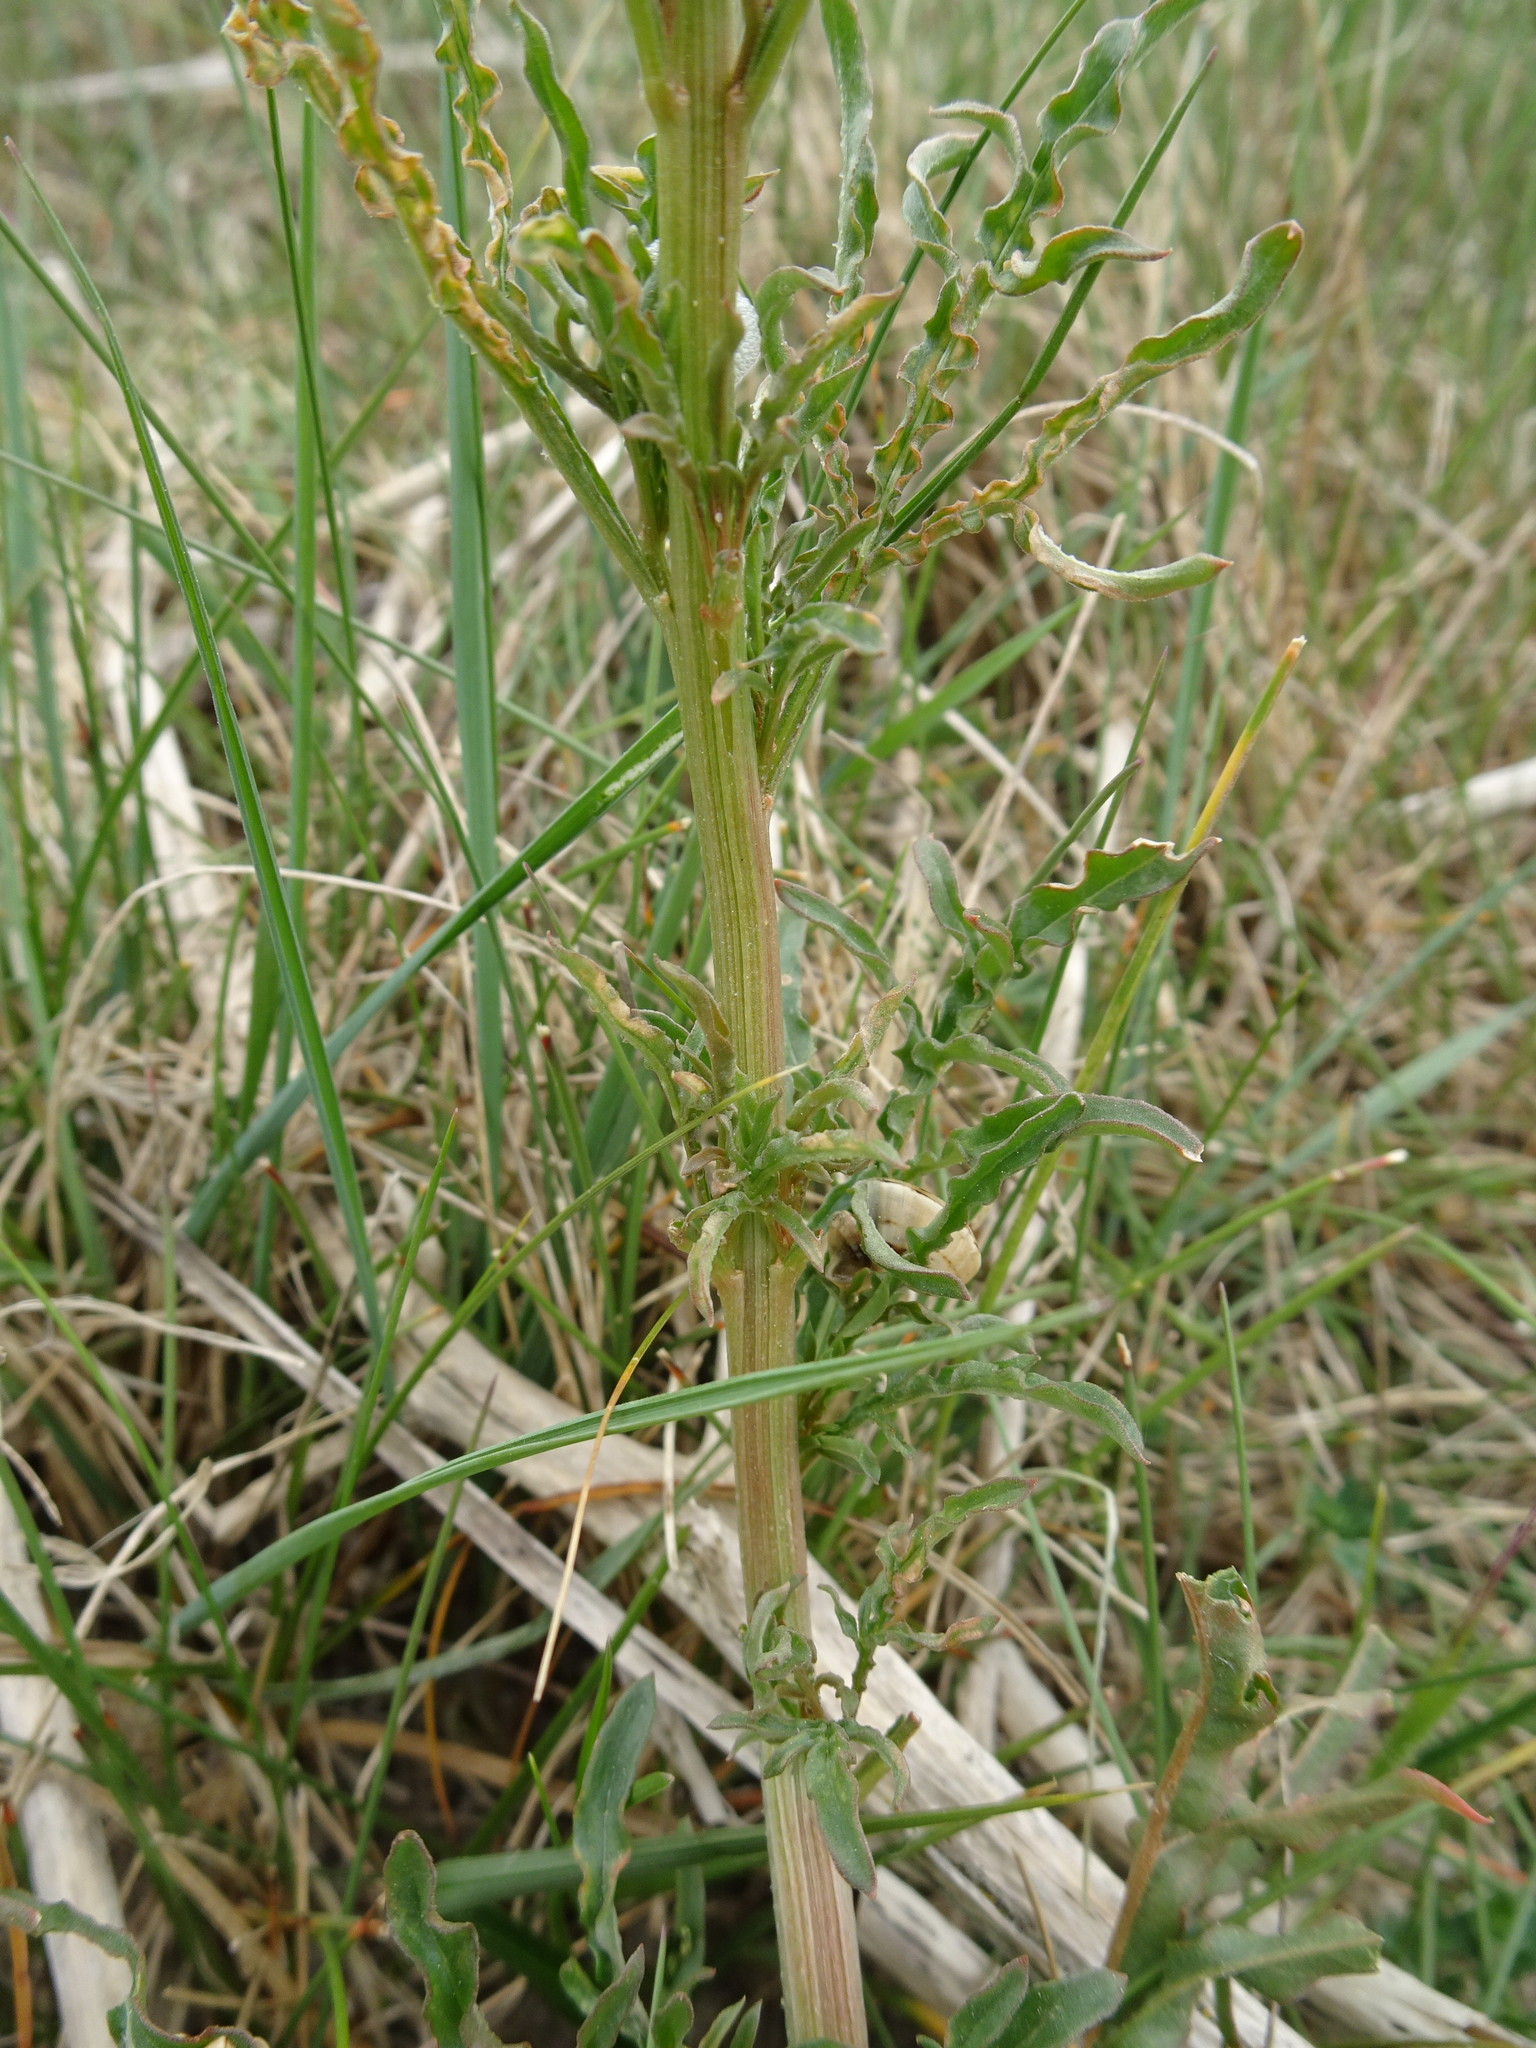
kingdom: Plantae
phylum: Tracheophyta
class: Magnoliopsida
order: Brassicales
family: Resedaceae
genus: Reseda
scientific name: Reseda lutea
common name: Wild mignonette
